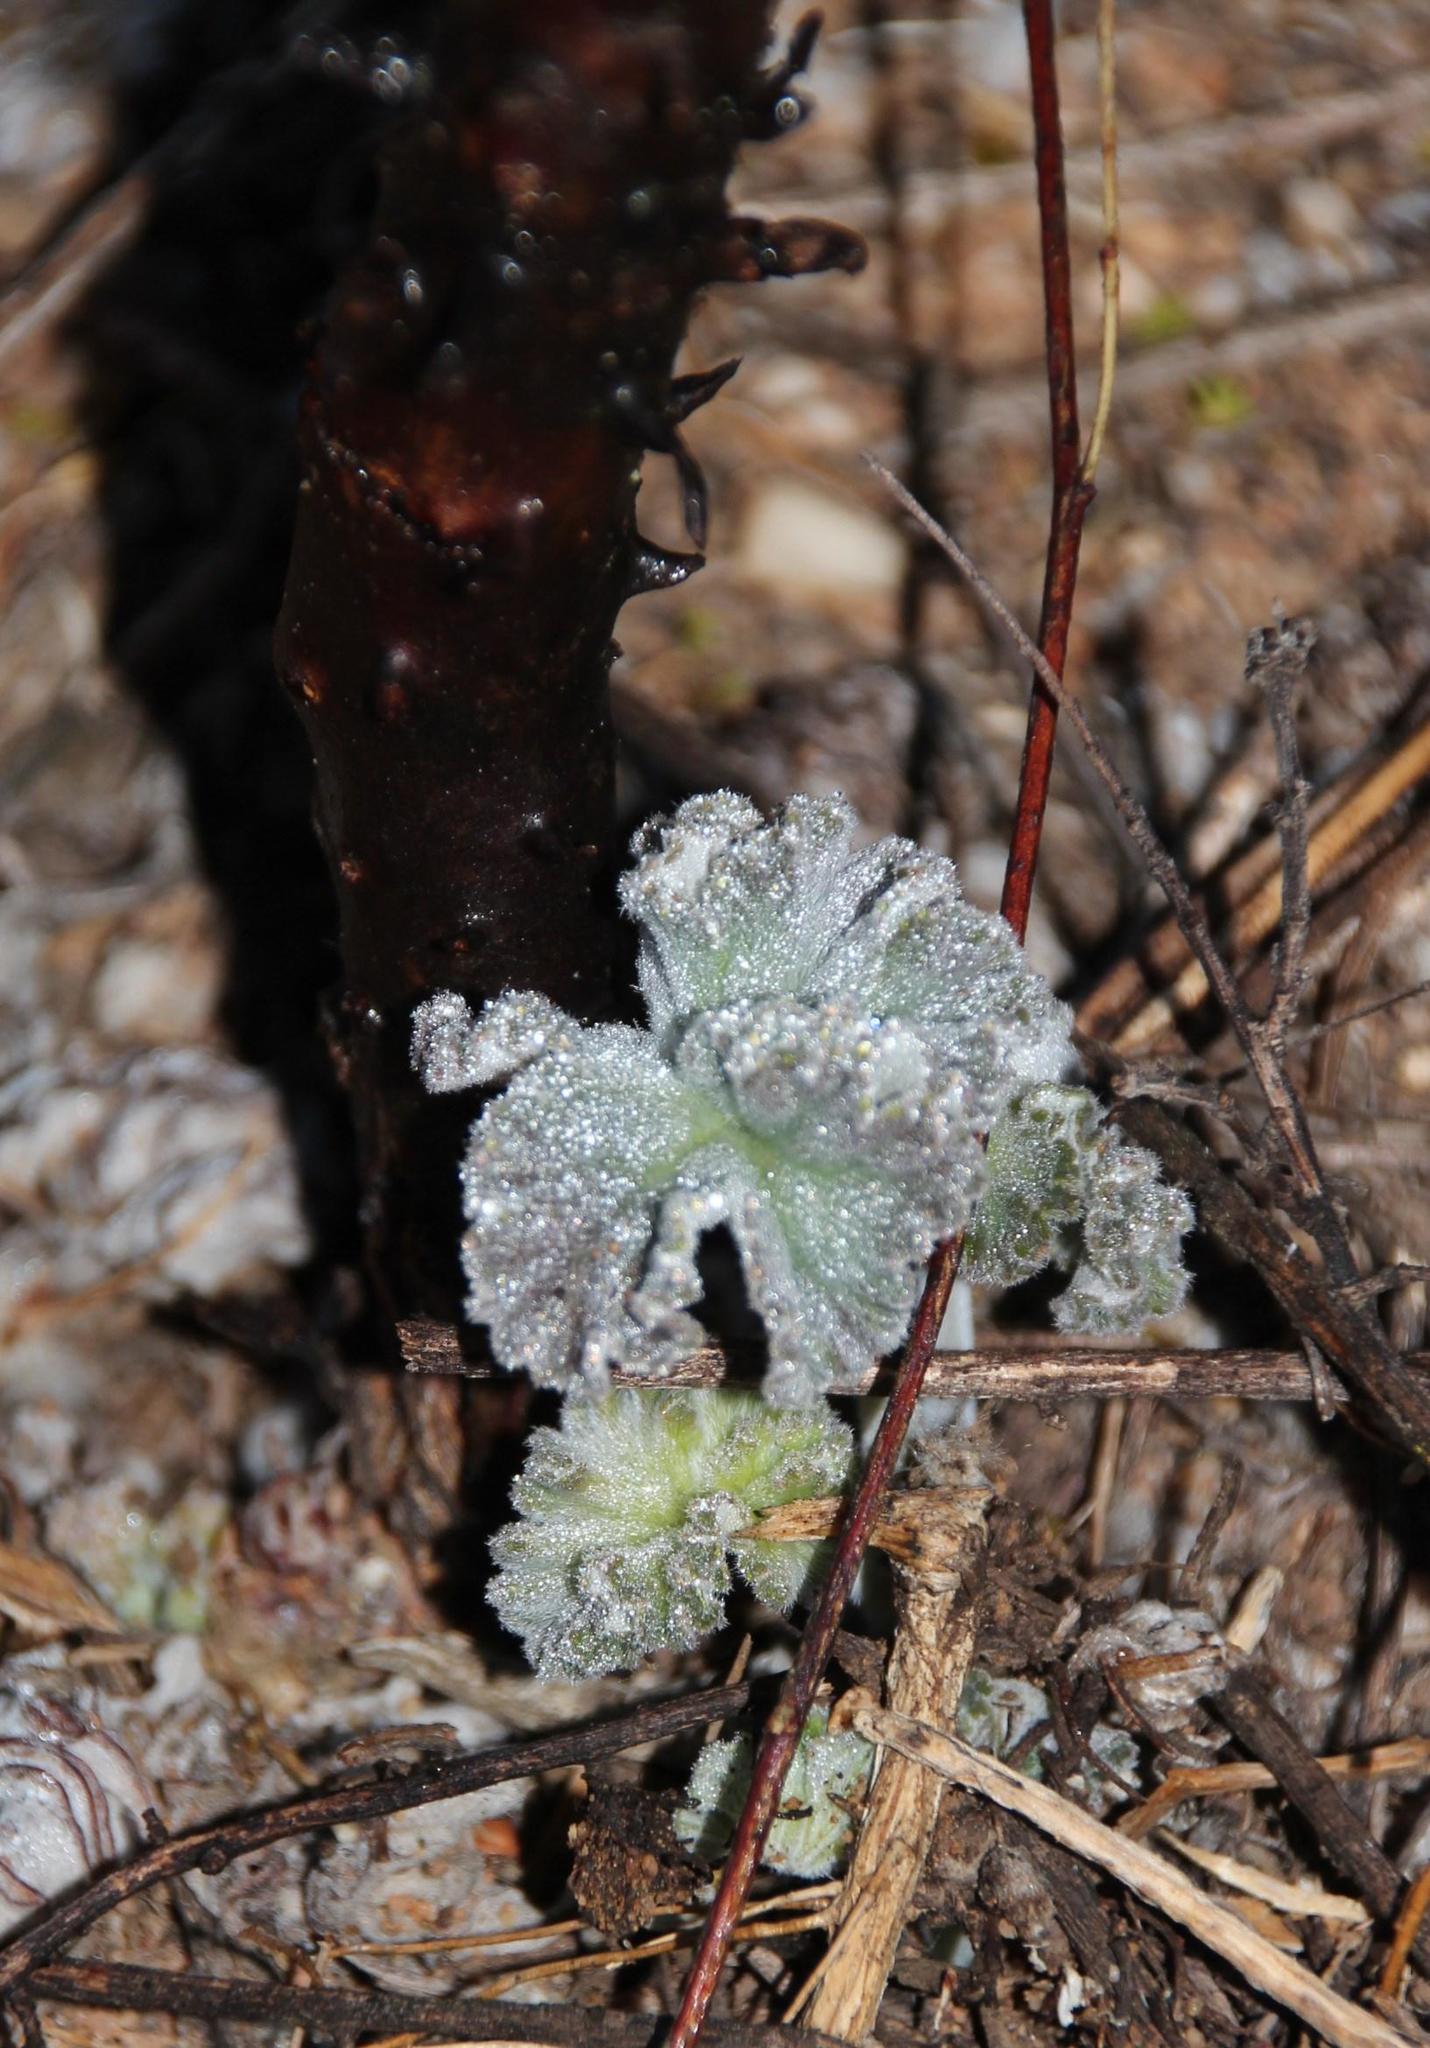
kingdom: Plantae
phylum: Tracheophyta
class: Magnoliopsida
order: Geraniales
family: Geraniaceae
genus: Pelargonium
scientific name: Pelargonium echinatum
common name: Cactus geranium
